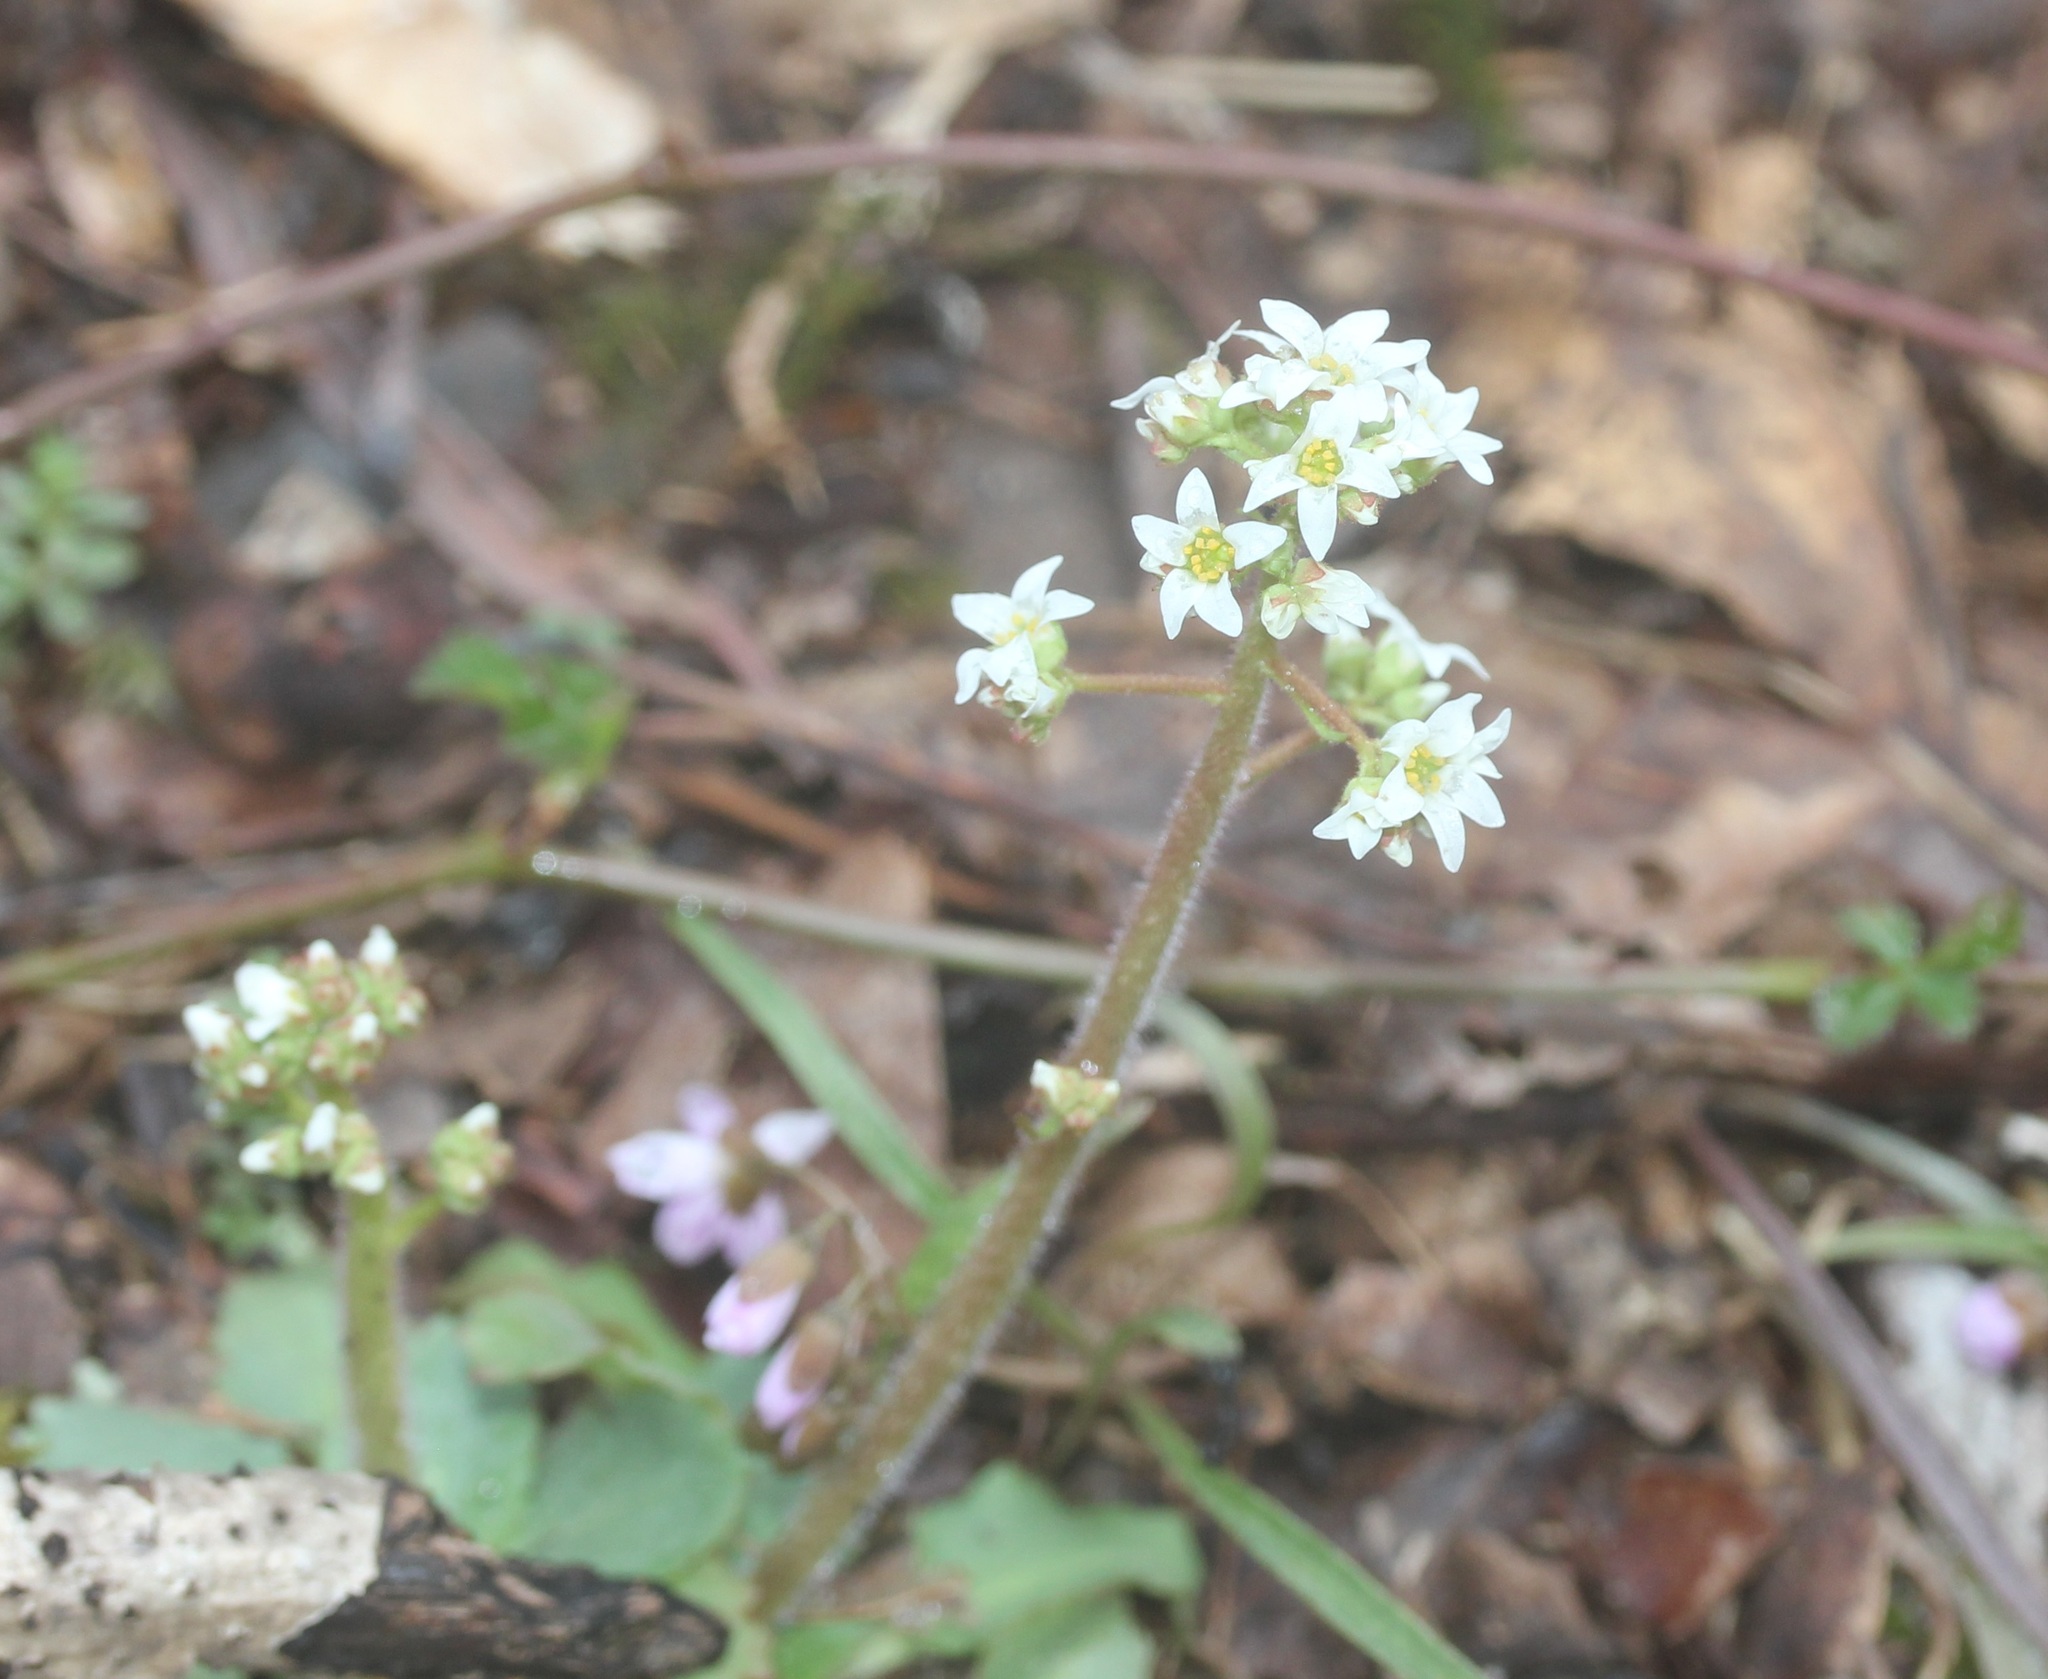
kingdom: Plantae
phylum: Tracheophyta
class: Magnoliopsida
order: Saxifragales
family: Saxifragaceae
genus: Micranthes
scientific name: Micranthes virginiensis
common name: Early saxifrage
